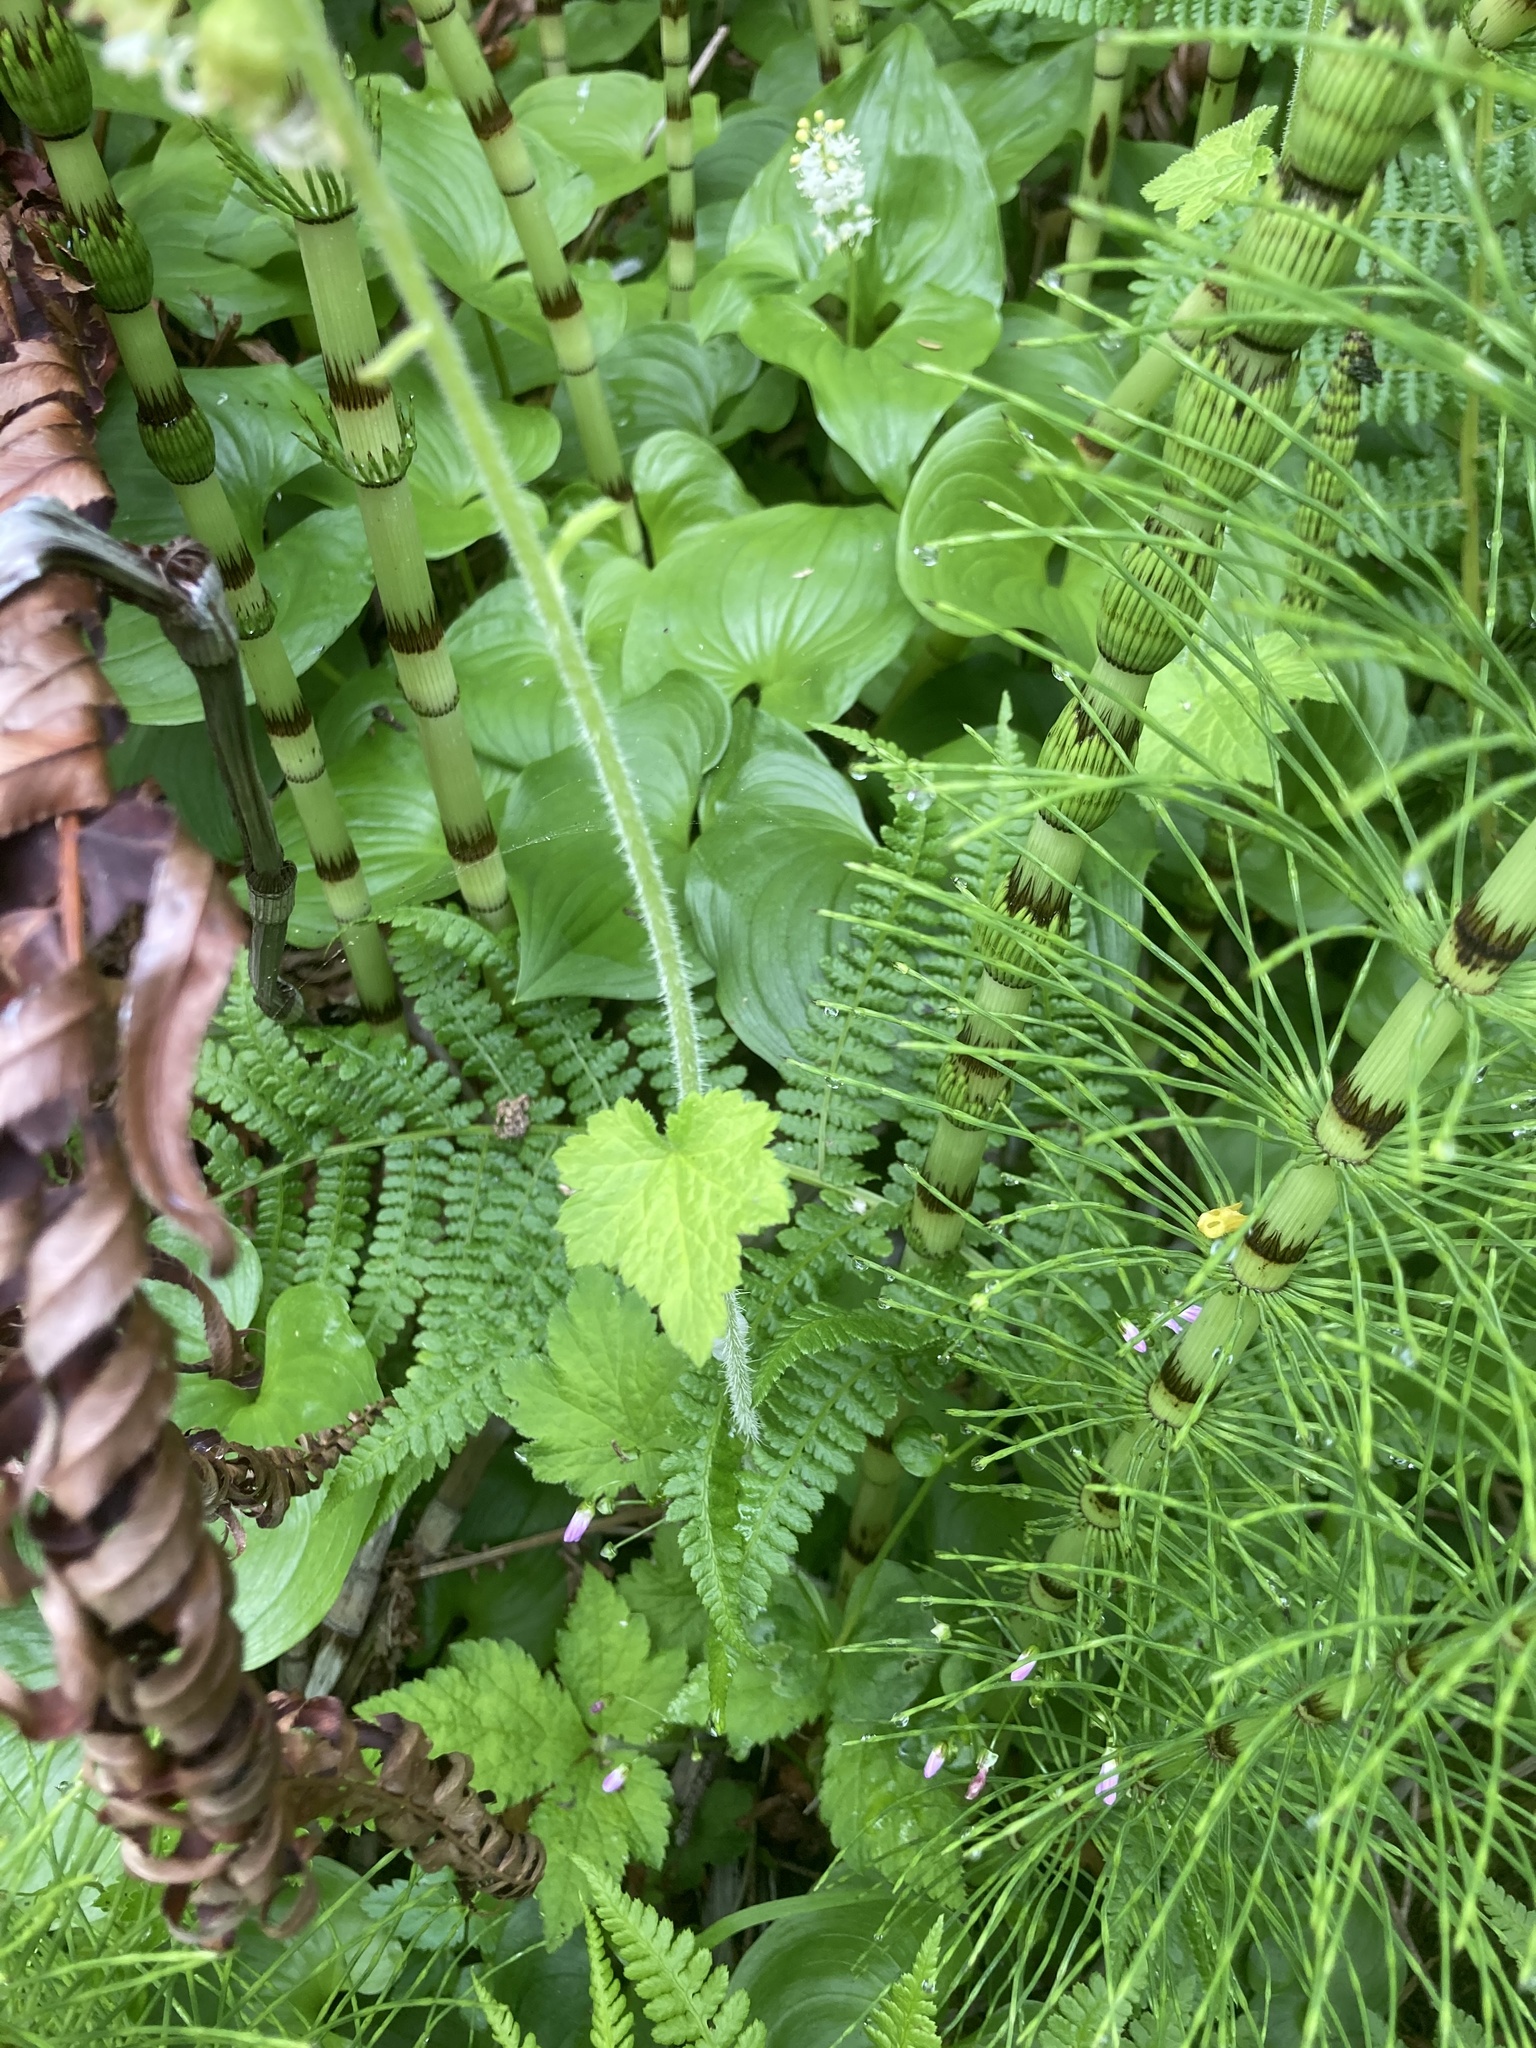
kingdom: Plantae
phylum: Tracheophyta
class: Magnoliopsida
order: Saxifragales
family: Saxifragaceae
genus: Tellima
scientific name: Tellima grandiflora
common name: Fringecups
